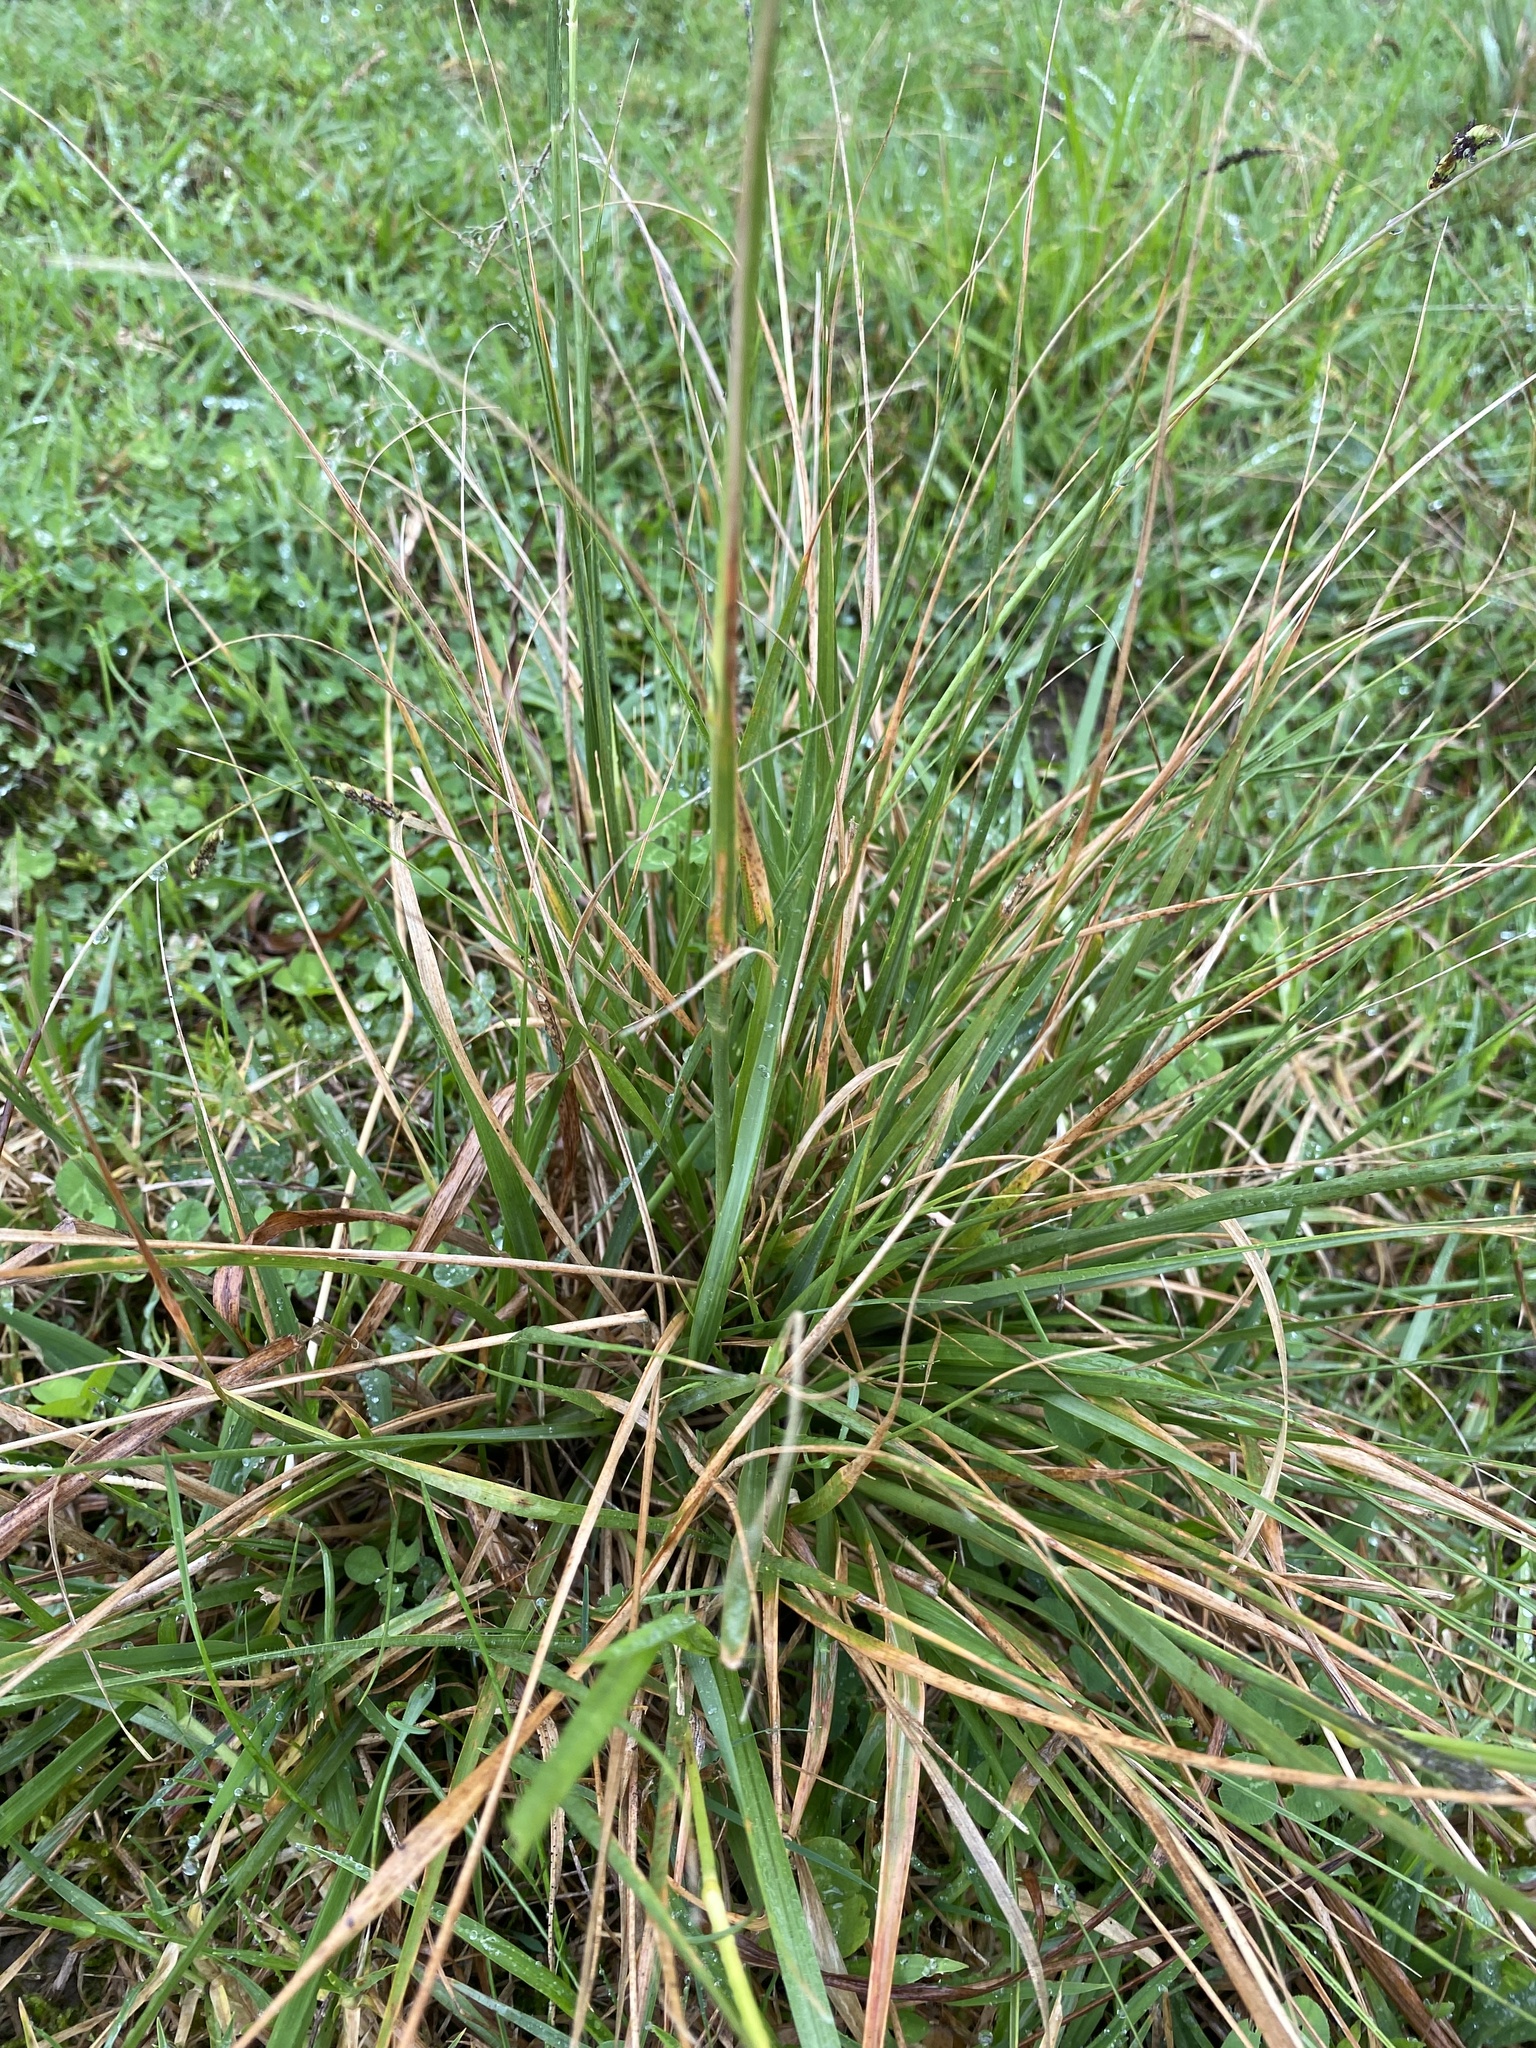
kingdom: Plantae
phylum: Tracheophyta
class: Liliopsida
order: Poales
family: Poaceae
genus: Sporobolus
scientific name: Sporobolus africanus
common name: African dropseed
